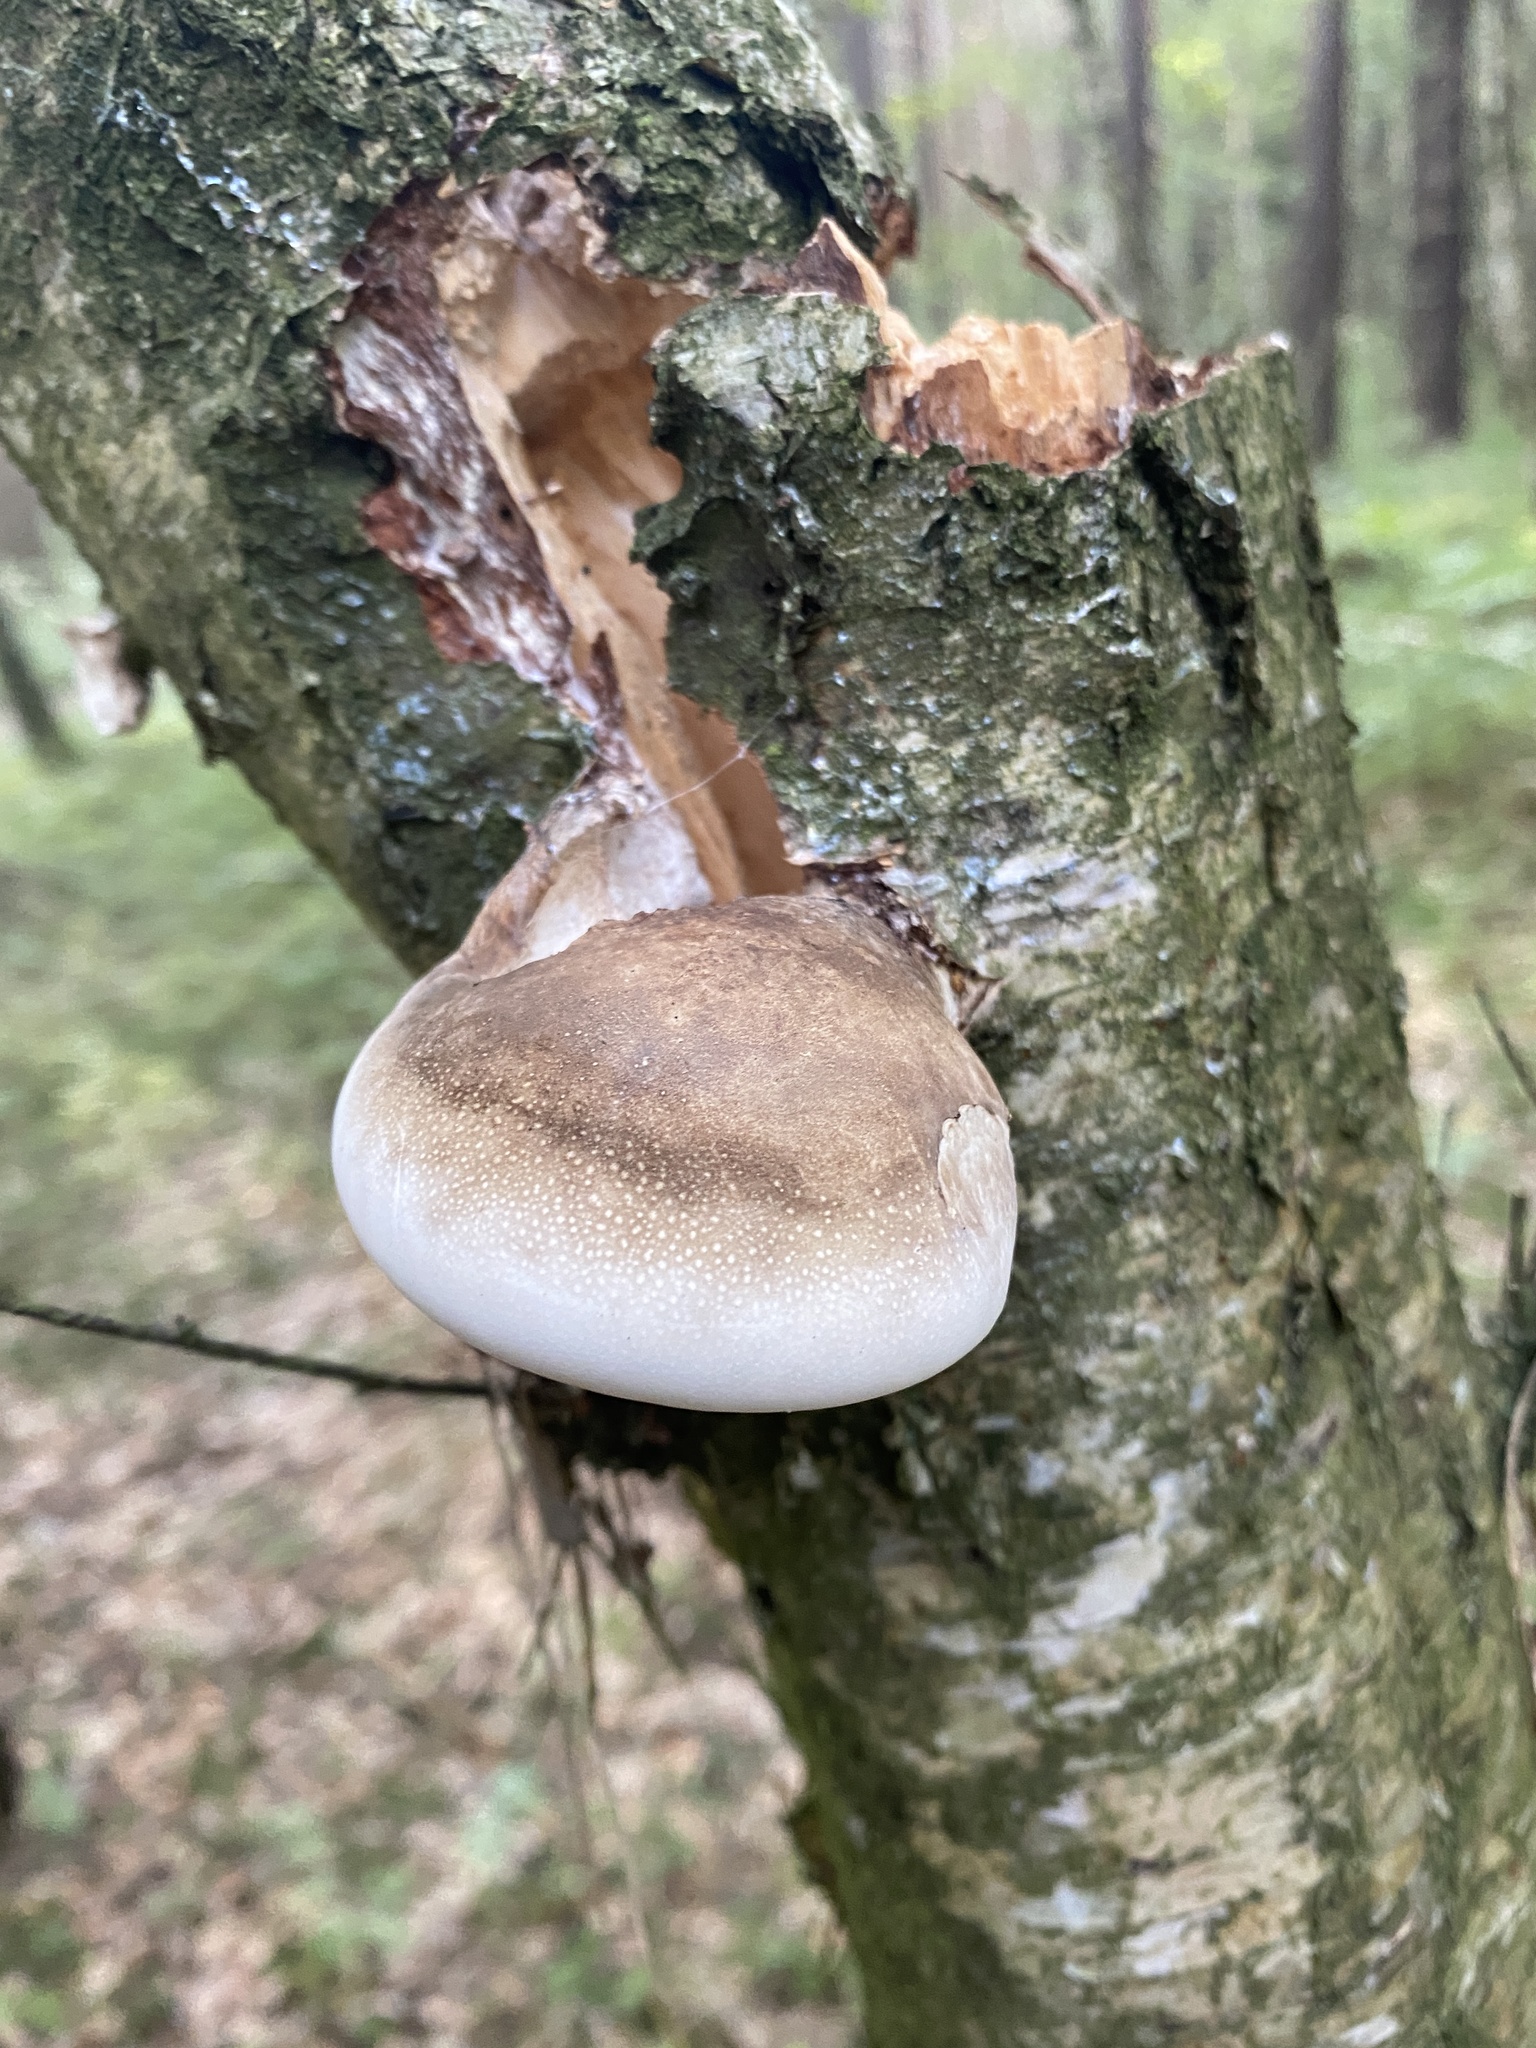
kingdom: Fungi
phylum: Basidiomycota
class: Agaricomycetes
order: Polyporales
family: Fomitopsidaceae
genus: Fomitopsis
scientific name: Fomitopsis betulina
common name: Birch polypore
